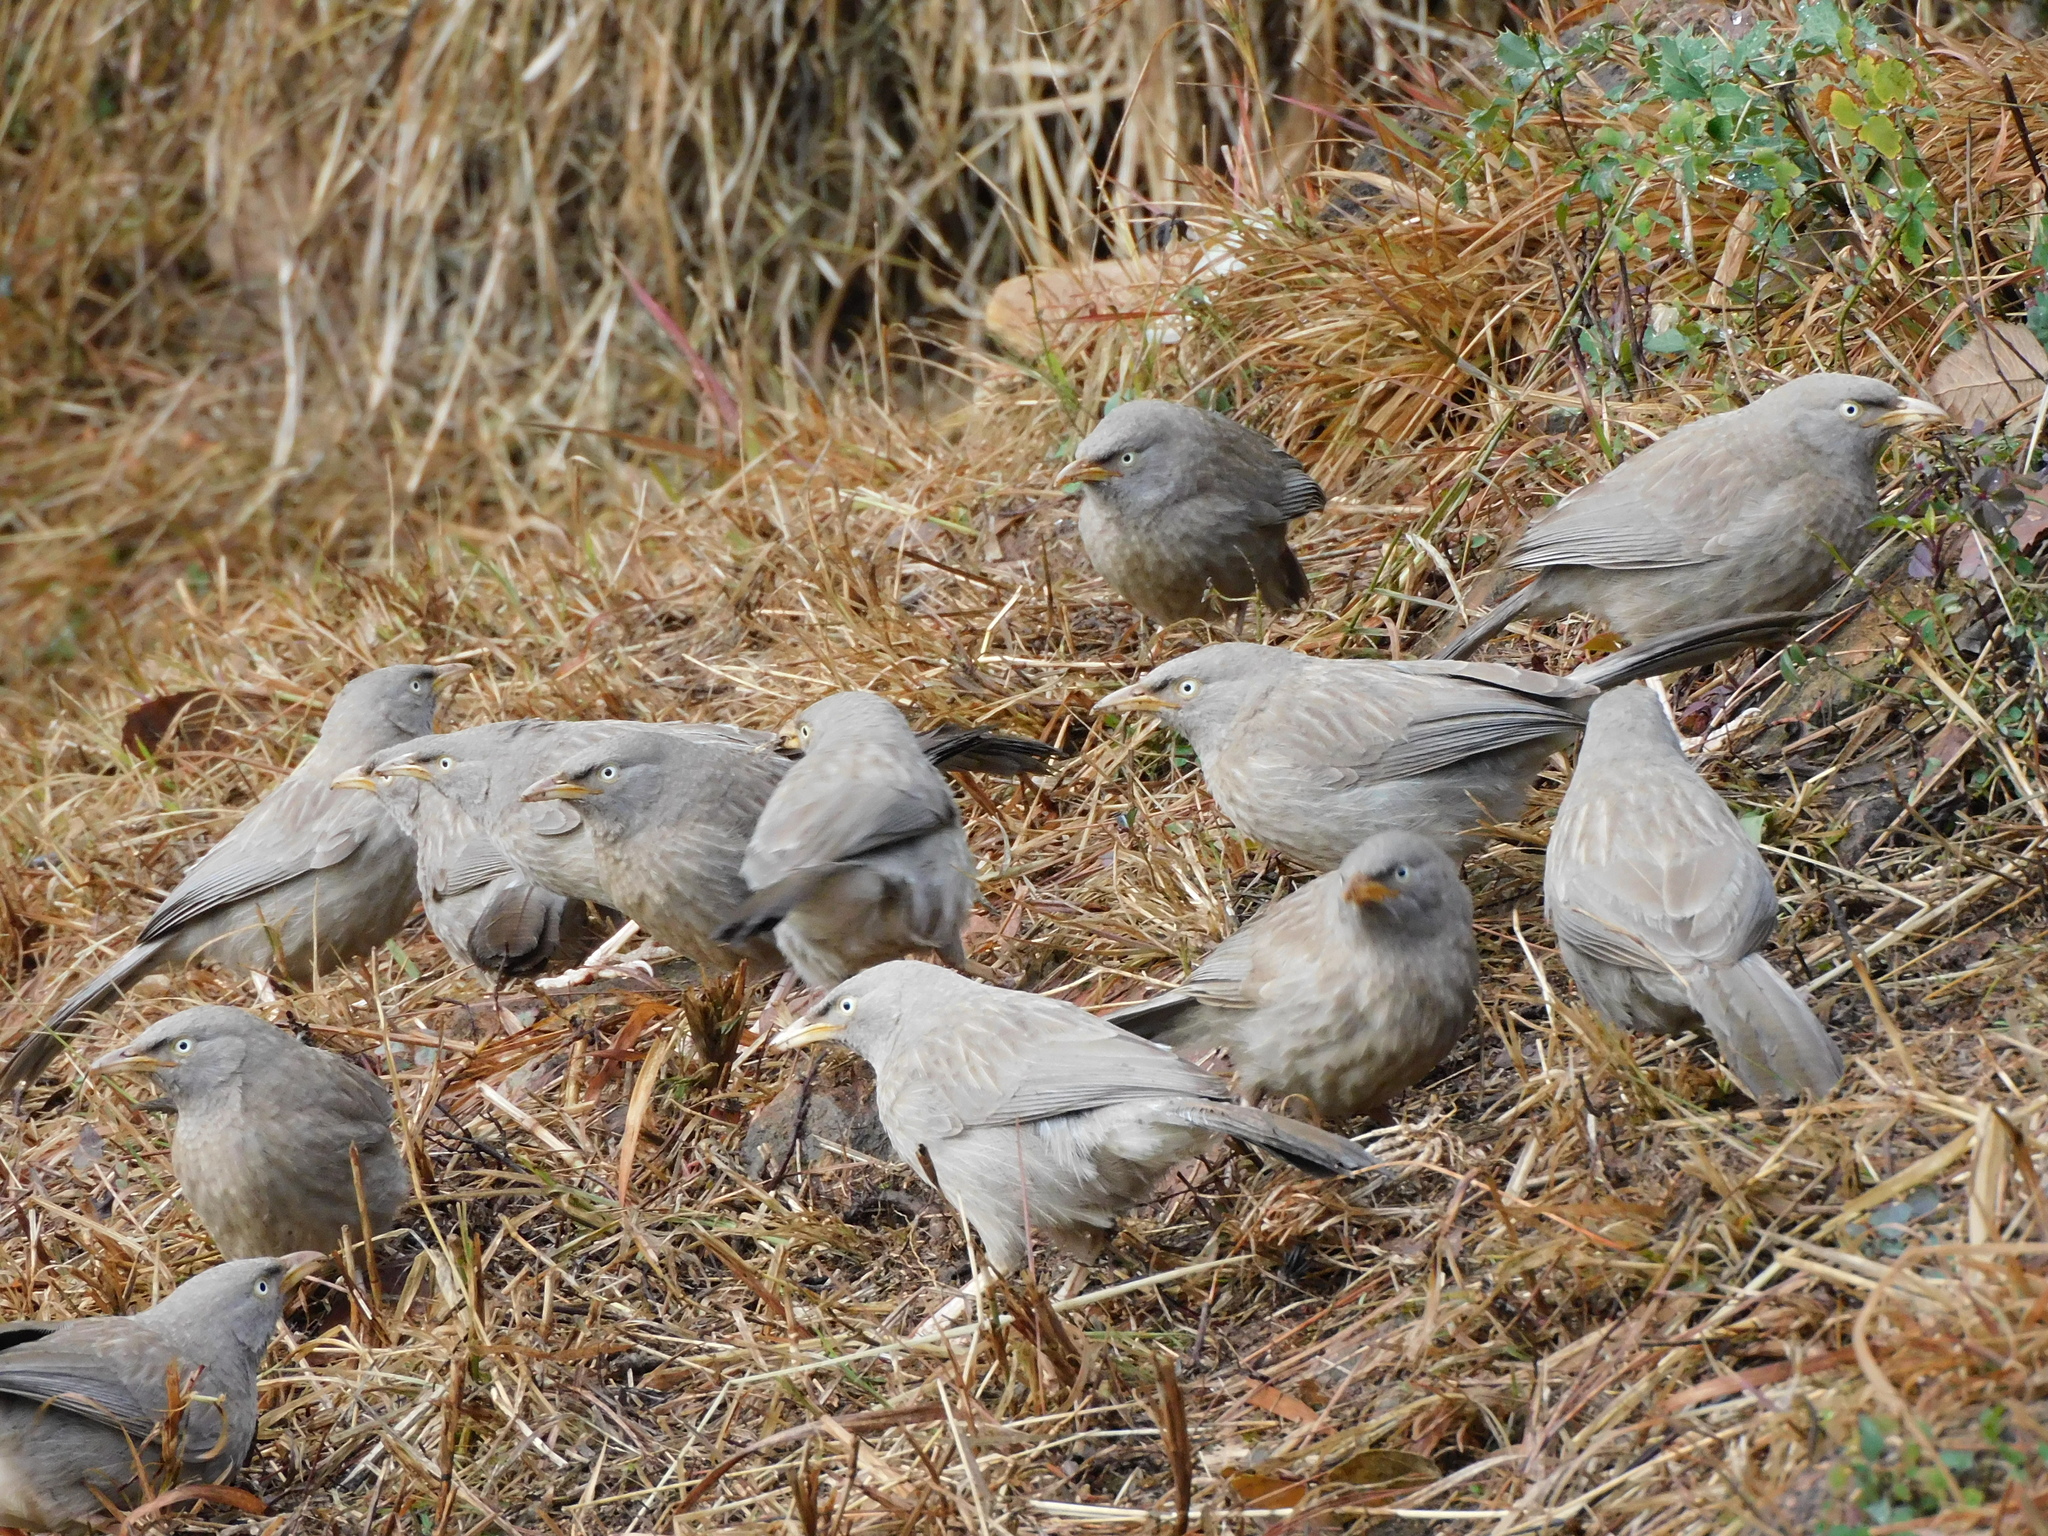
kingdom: Animalia
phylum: Chordata
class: Aves
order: Passeriformes
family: Leiothrichidae
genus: Turdoides
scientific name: Turdoides striata
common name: Jungle babbler
